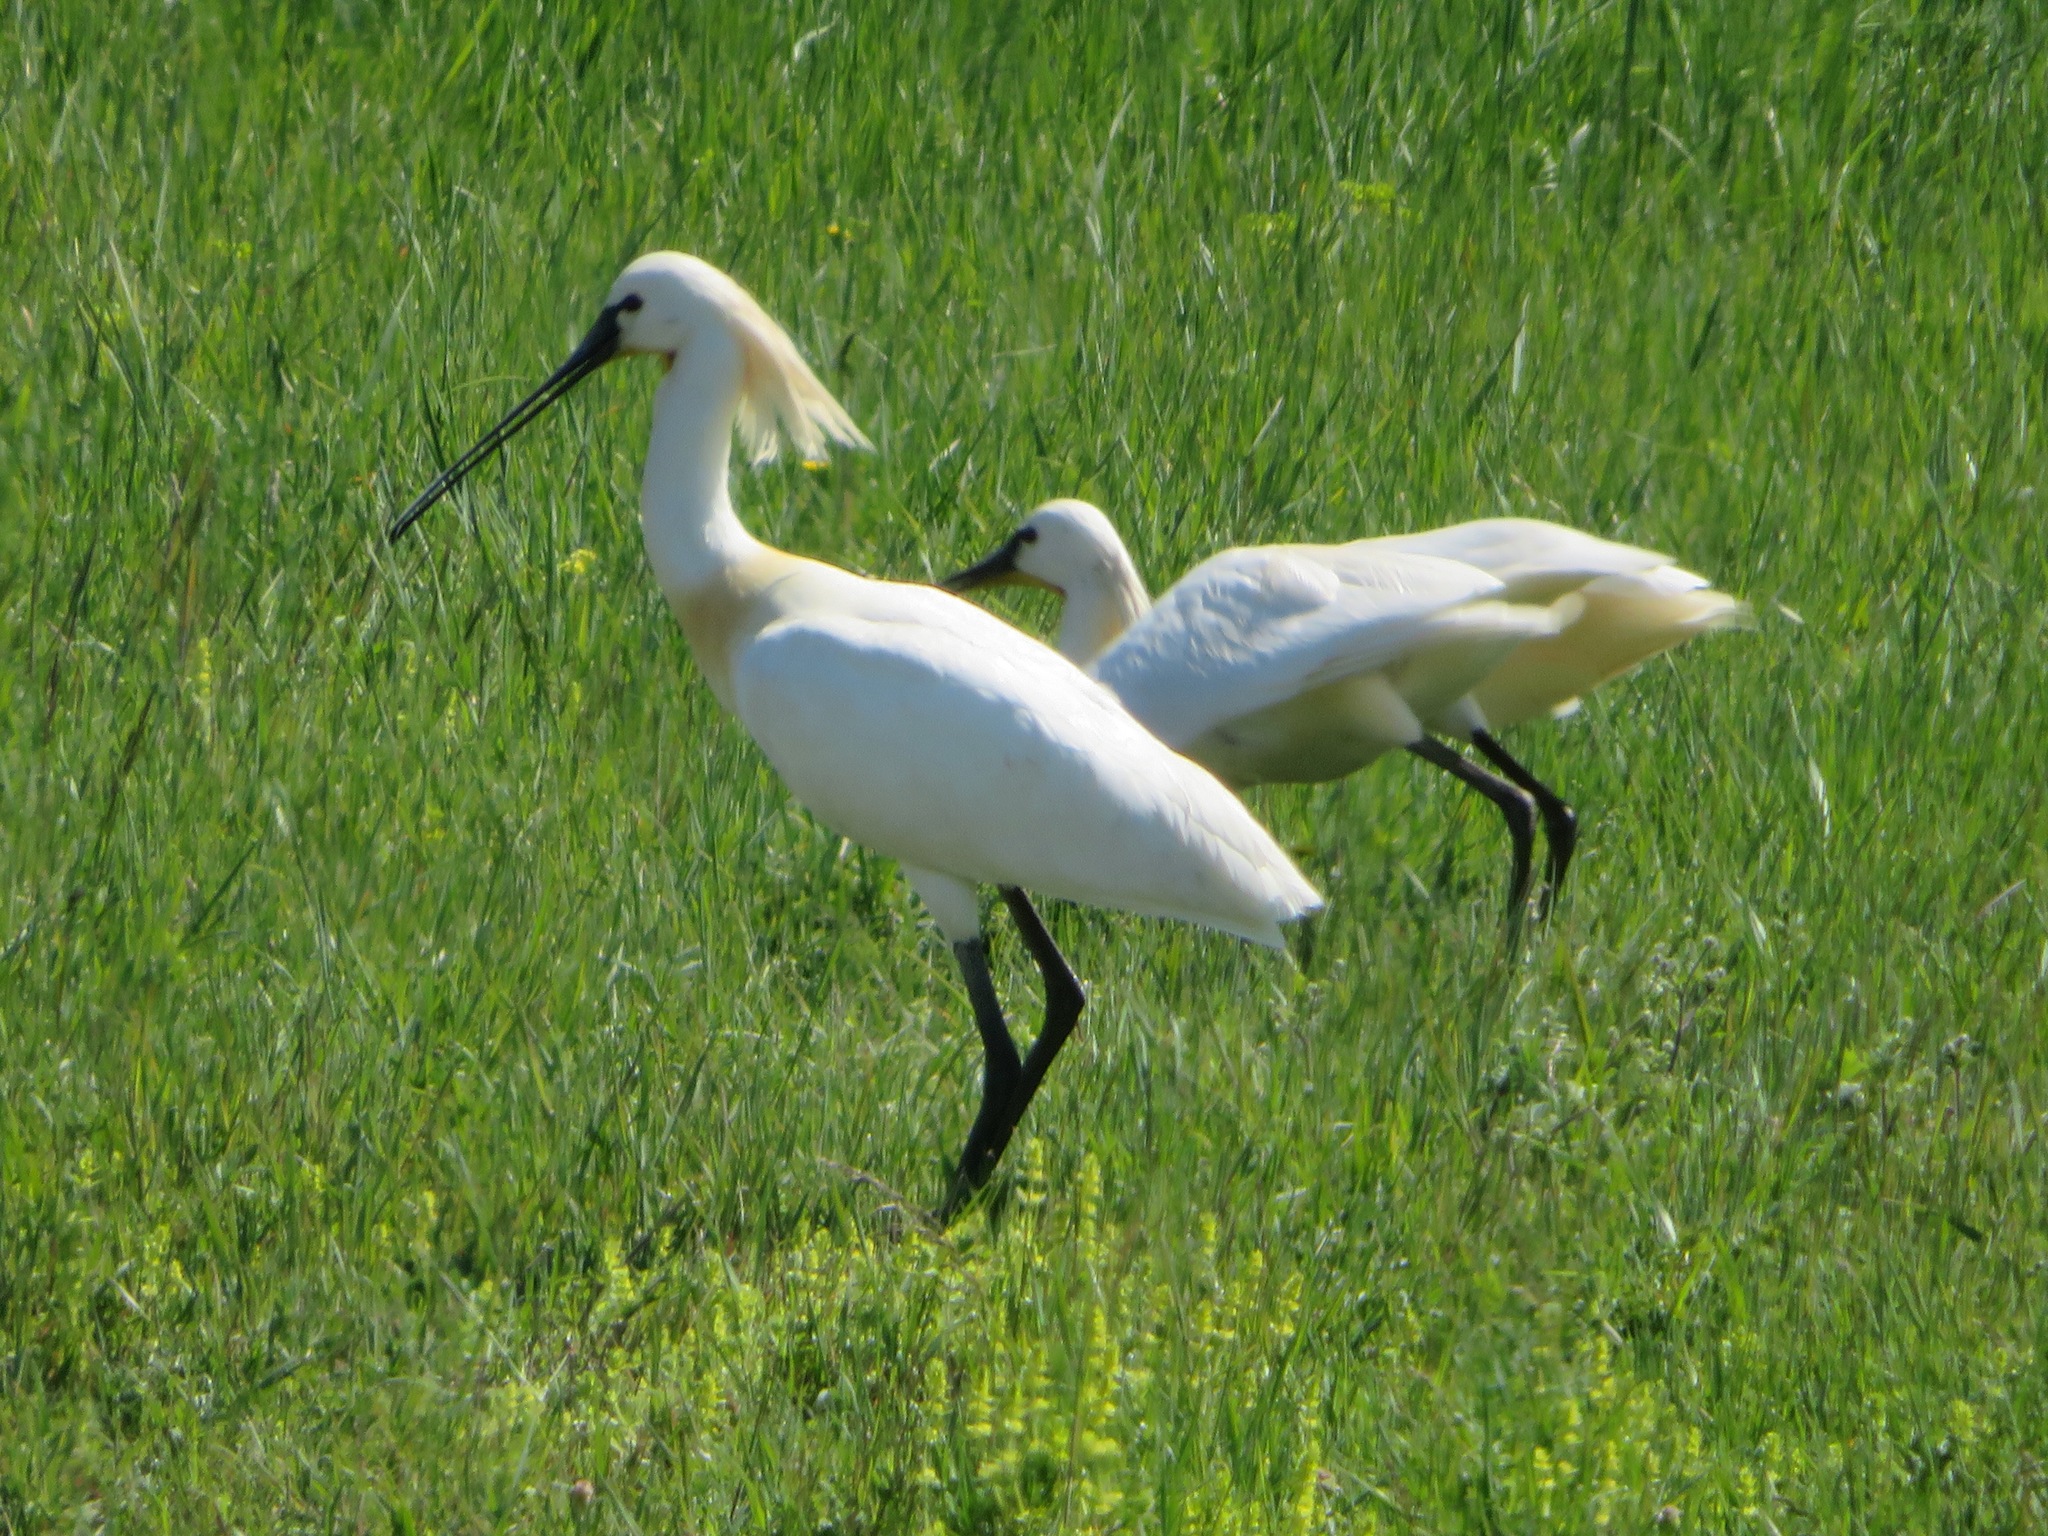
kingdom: Animalia
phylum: Chordata
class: Aves
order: Pelecaniformes
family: Threskiornithidae
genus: Platalea
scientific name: Platalea leucorodia
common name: Eurasian spoonbill
